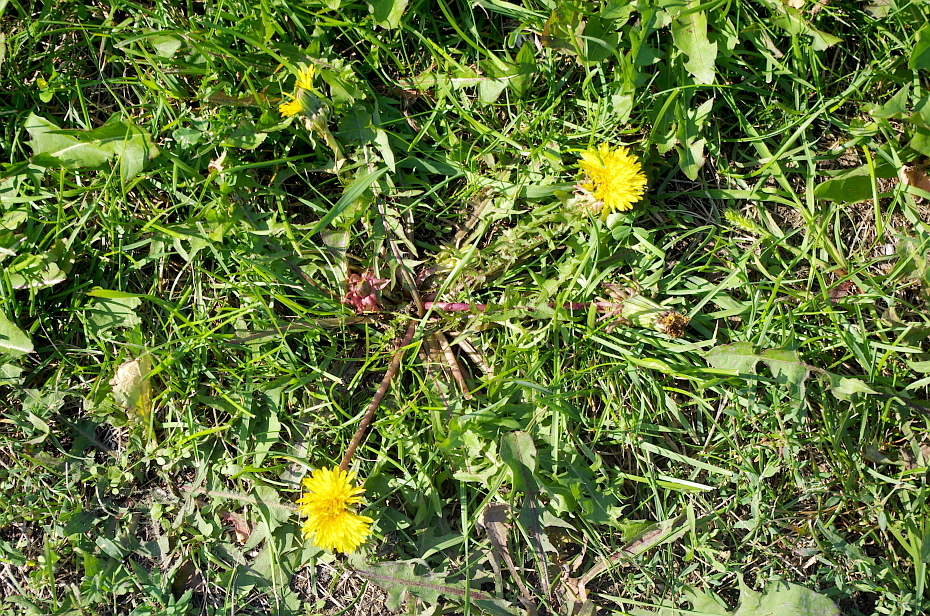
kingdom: Plantae
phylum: Tracheophyta
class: Magnoliopsida
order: Asterales
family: Asteraceae
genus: Taraxacum
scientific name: Taraxacum officinale
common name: Common dandelion
